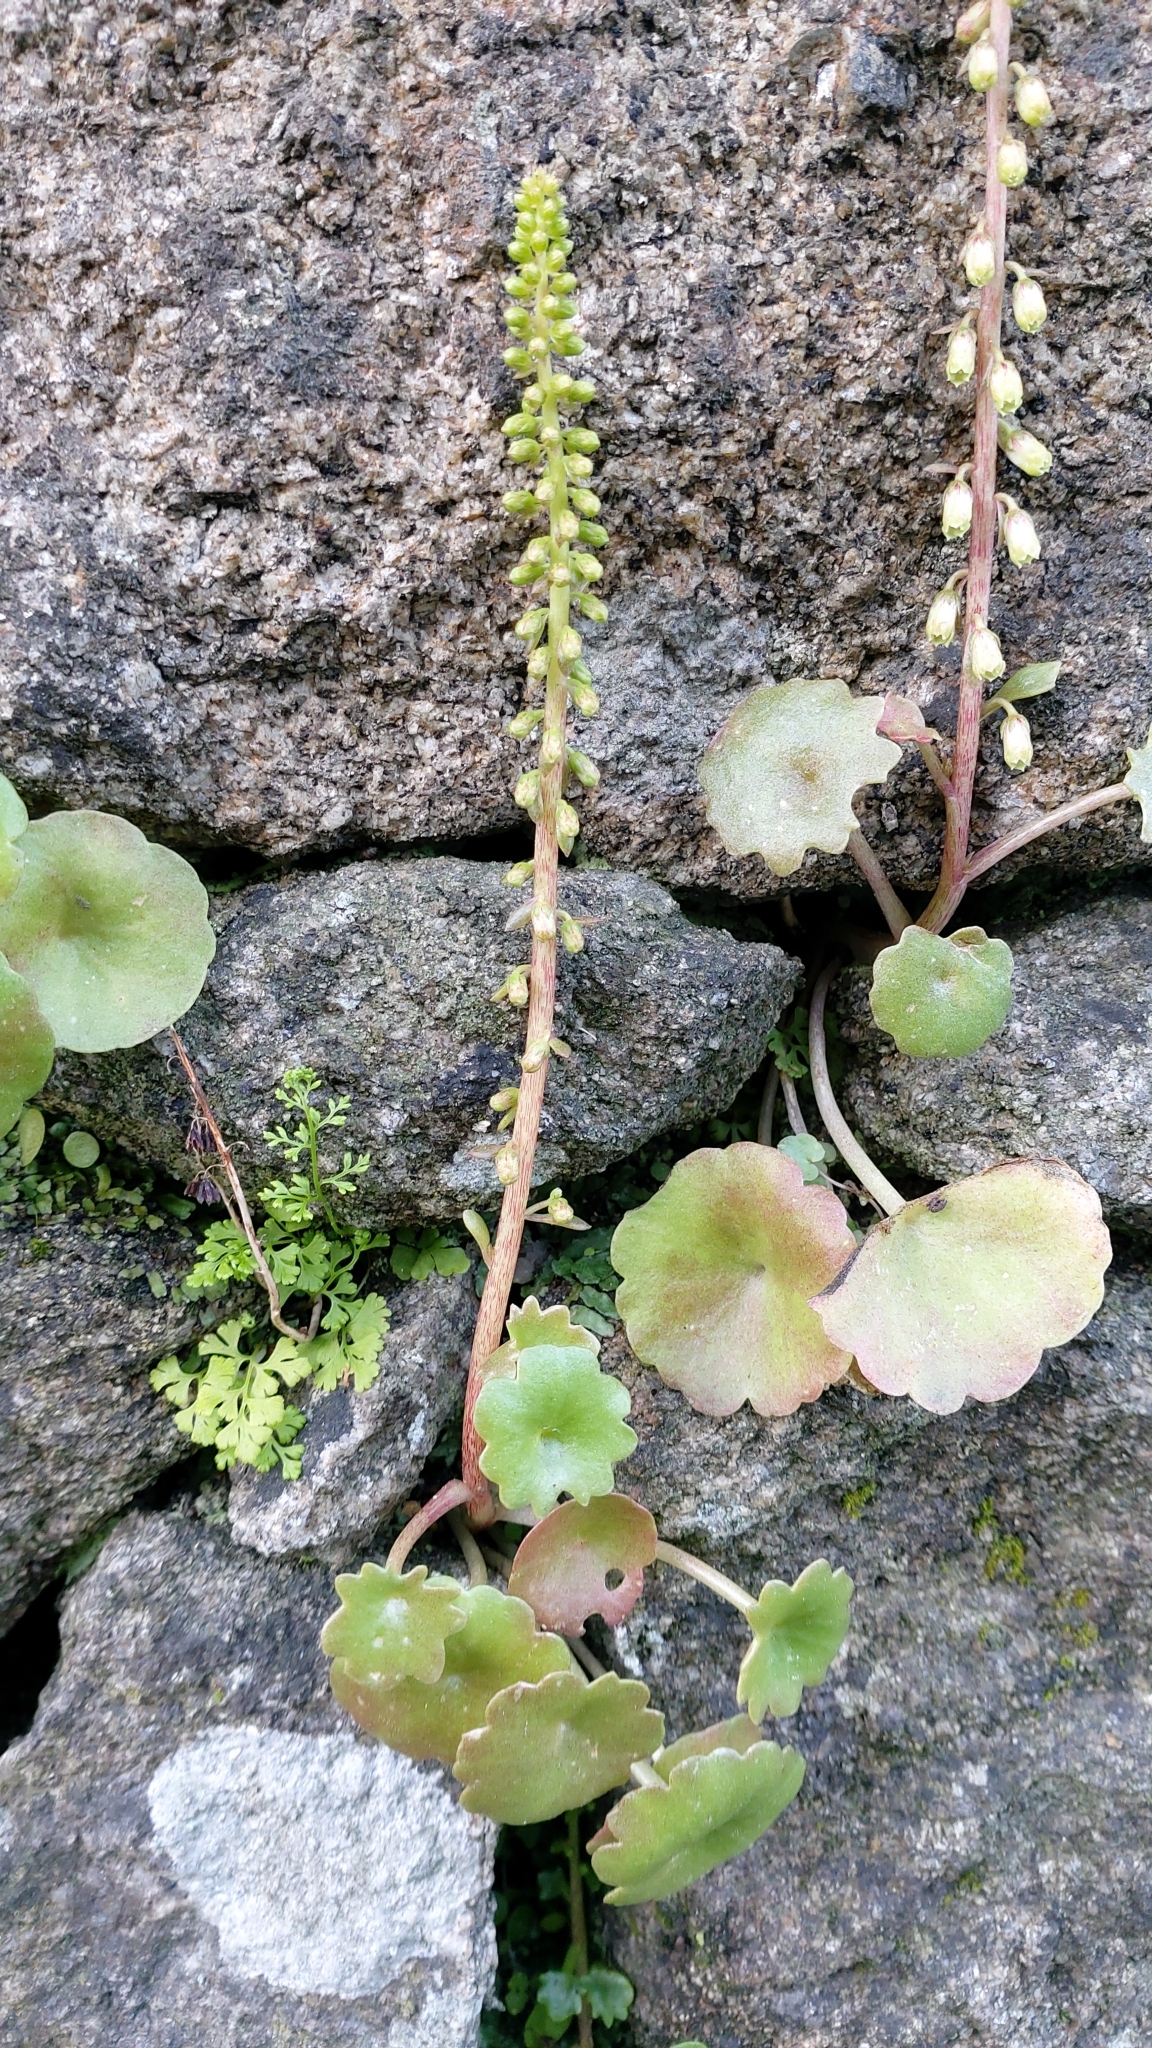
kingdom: Plantae
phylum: Tracheophyta
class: Magnoliopsida
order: Saxifragales
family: Crassulaceae
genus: Umbilicus
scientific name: Umbilicus rupestris
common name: Navelwort
